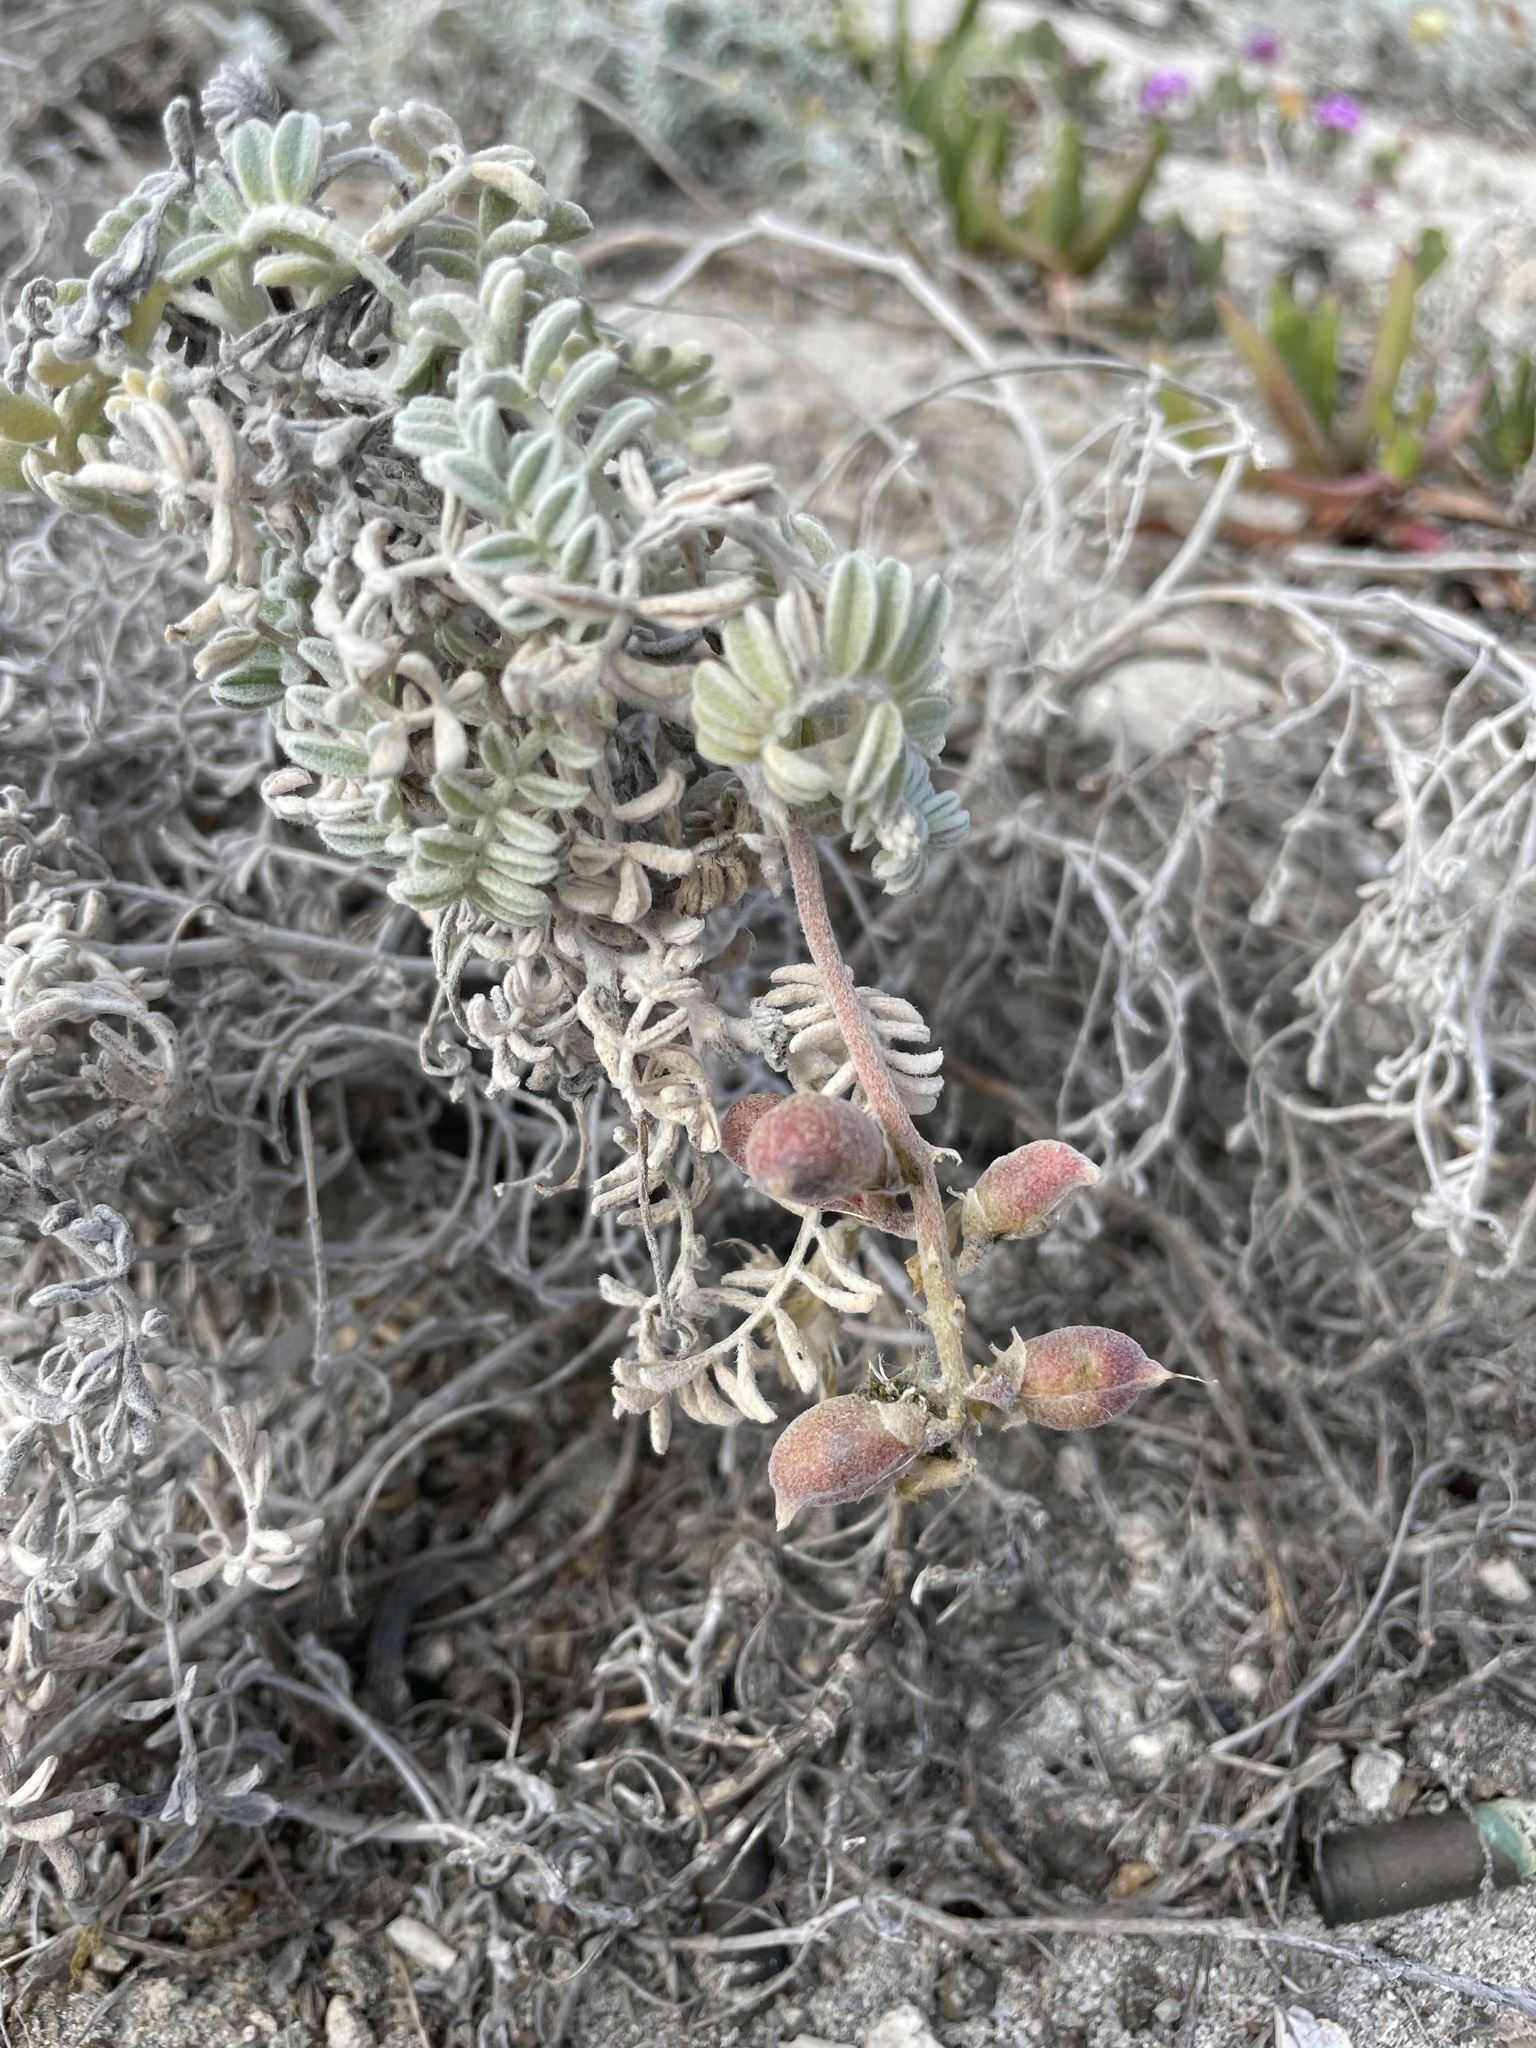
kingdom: Plantae
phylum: Tracheophyta
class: Magnoliopsida
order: Fabales
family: Fabaceae
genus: Astragalus
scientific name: Astragalus miguelensis
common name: San miguel milk-vetch
